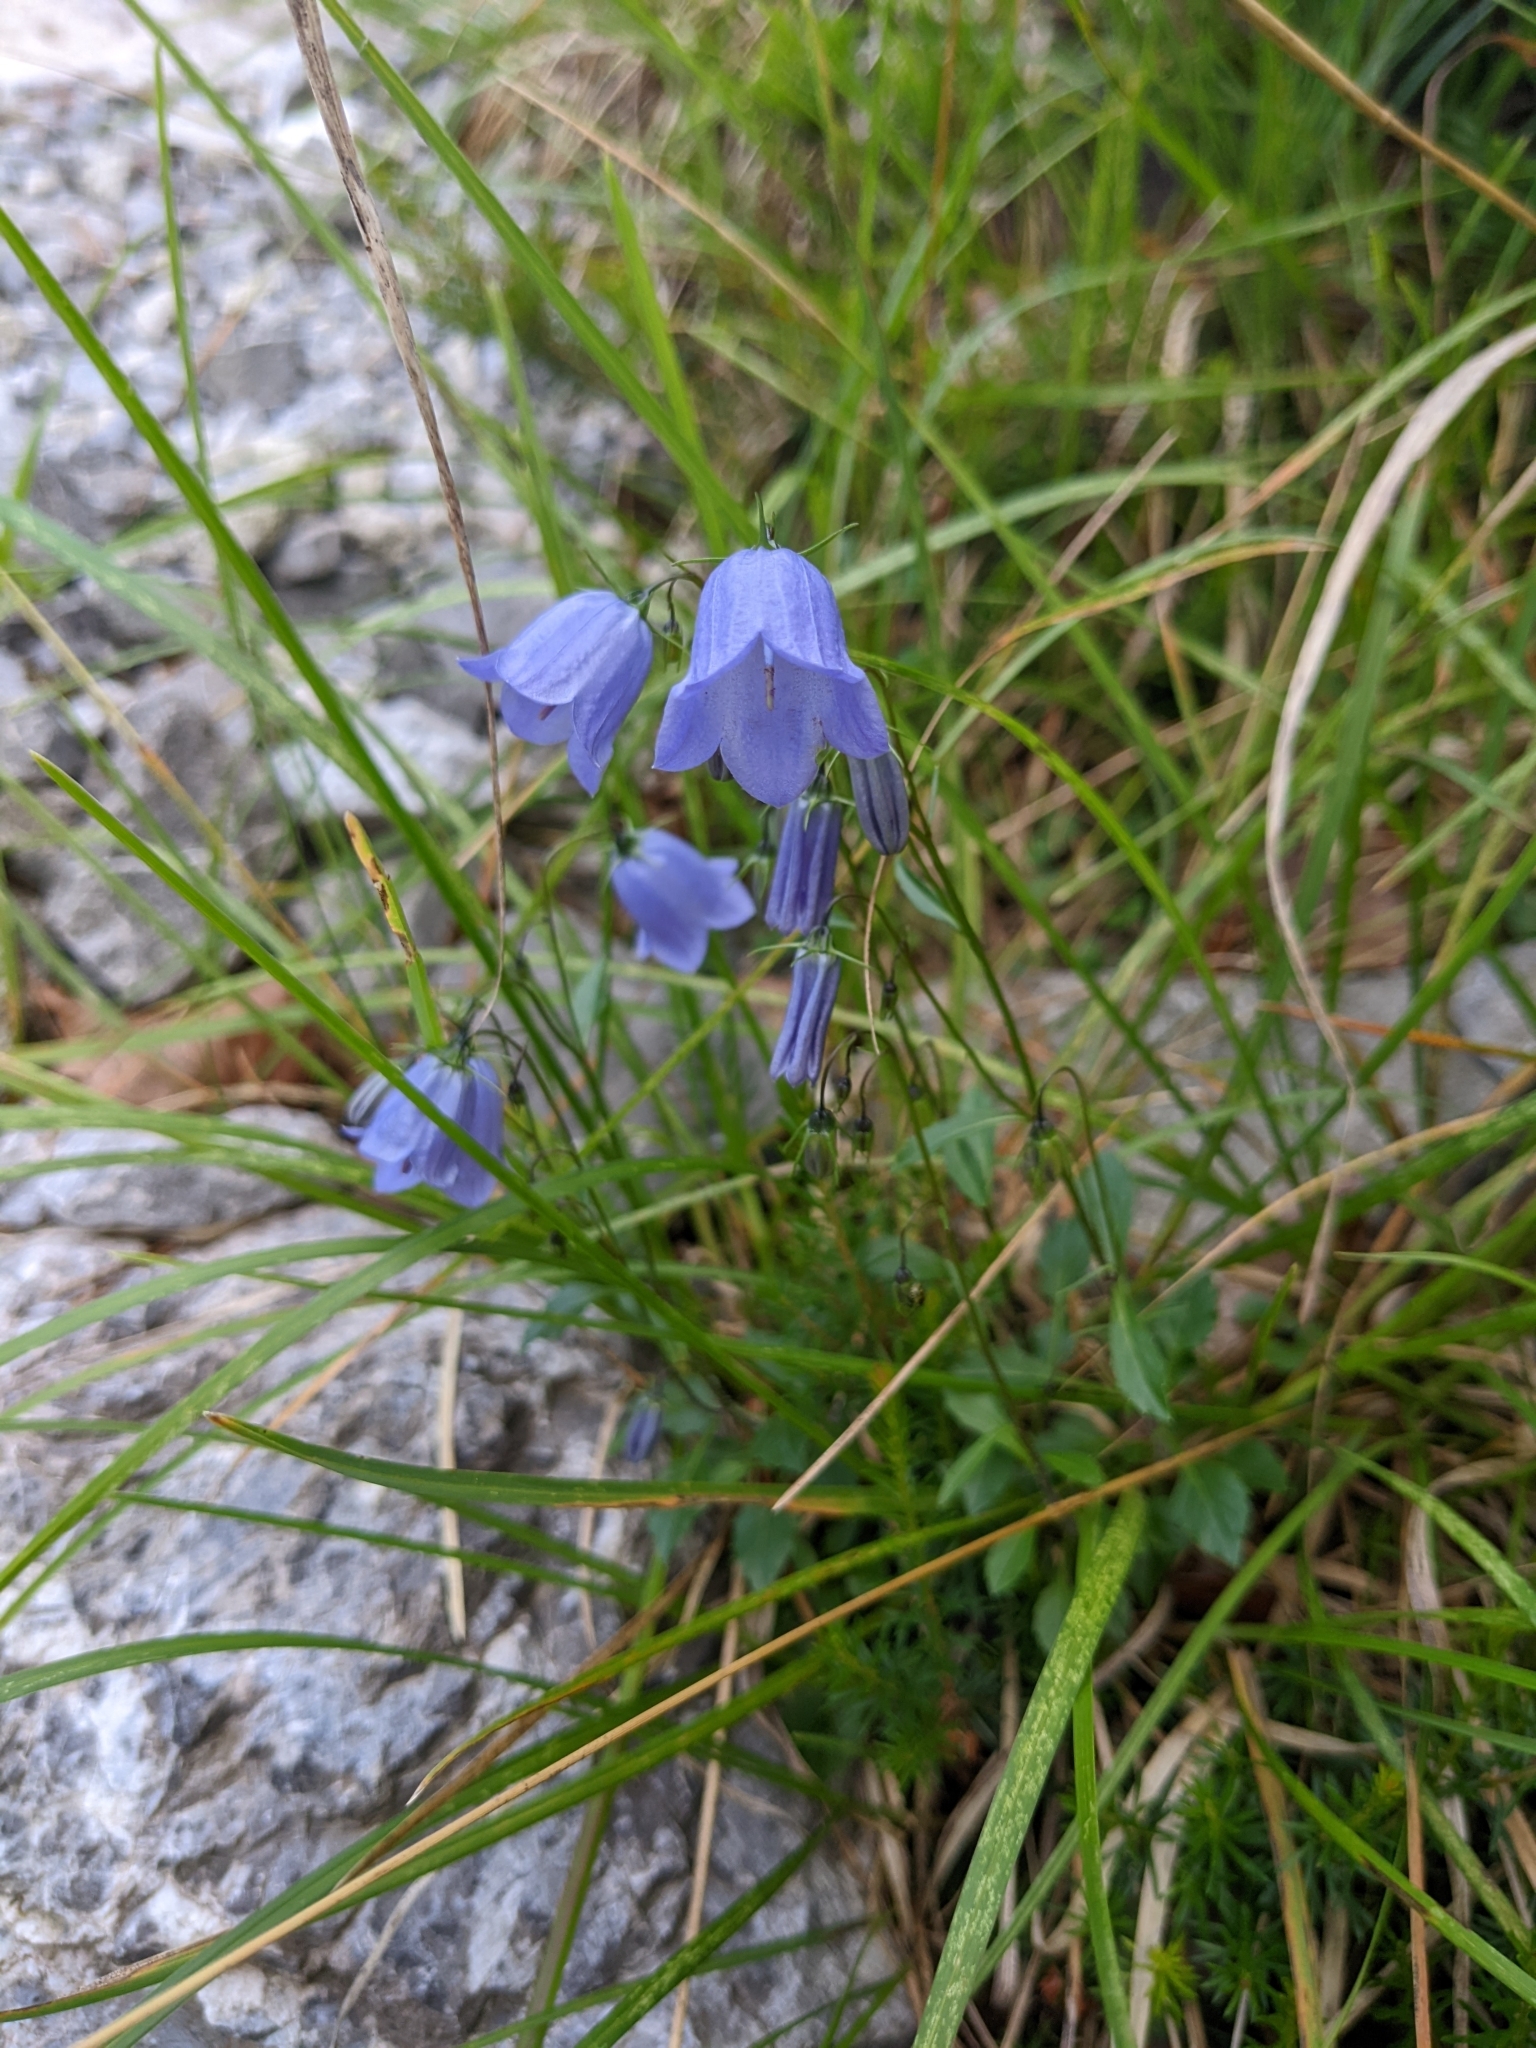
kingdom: Plantae
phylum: Tracheophyta
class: Magnoliopsida
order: Asterales
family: Campanulaceae
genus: Campanula
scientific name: Campanula cochleariifolia
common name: Fairies'-thimbles
